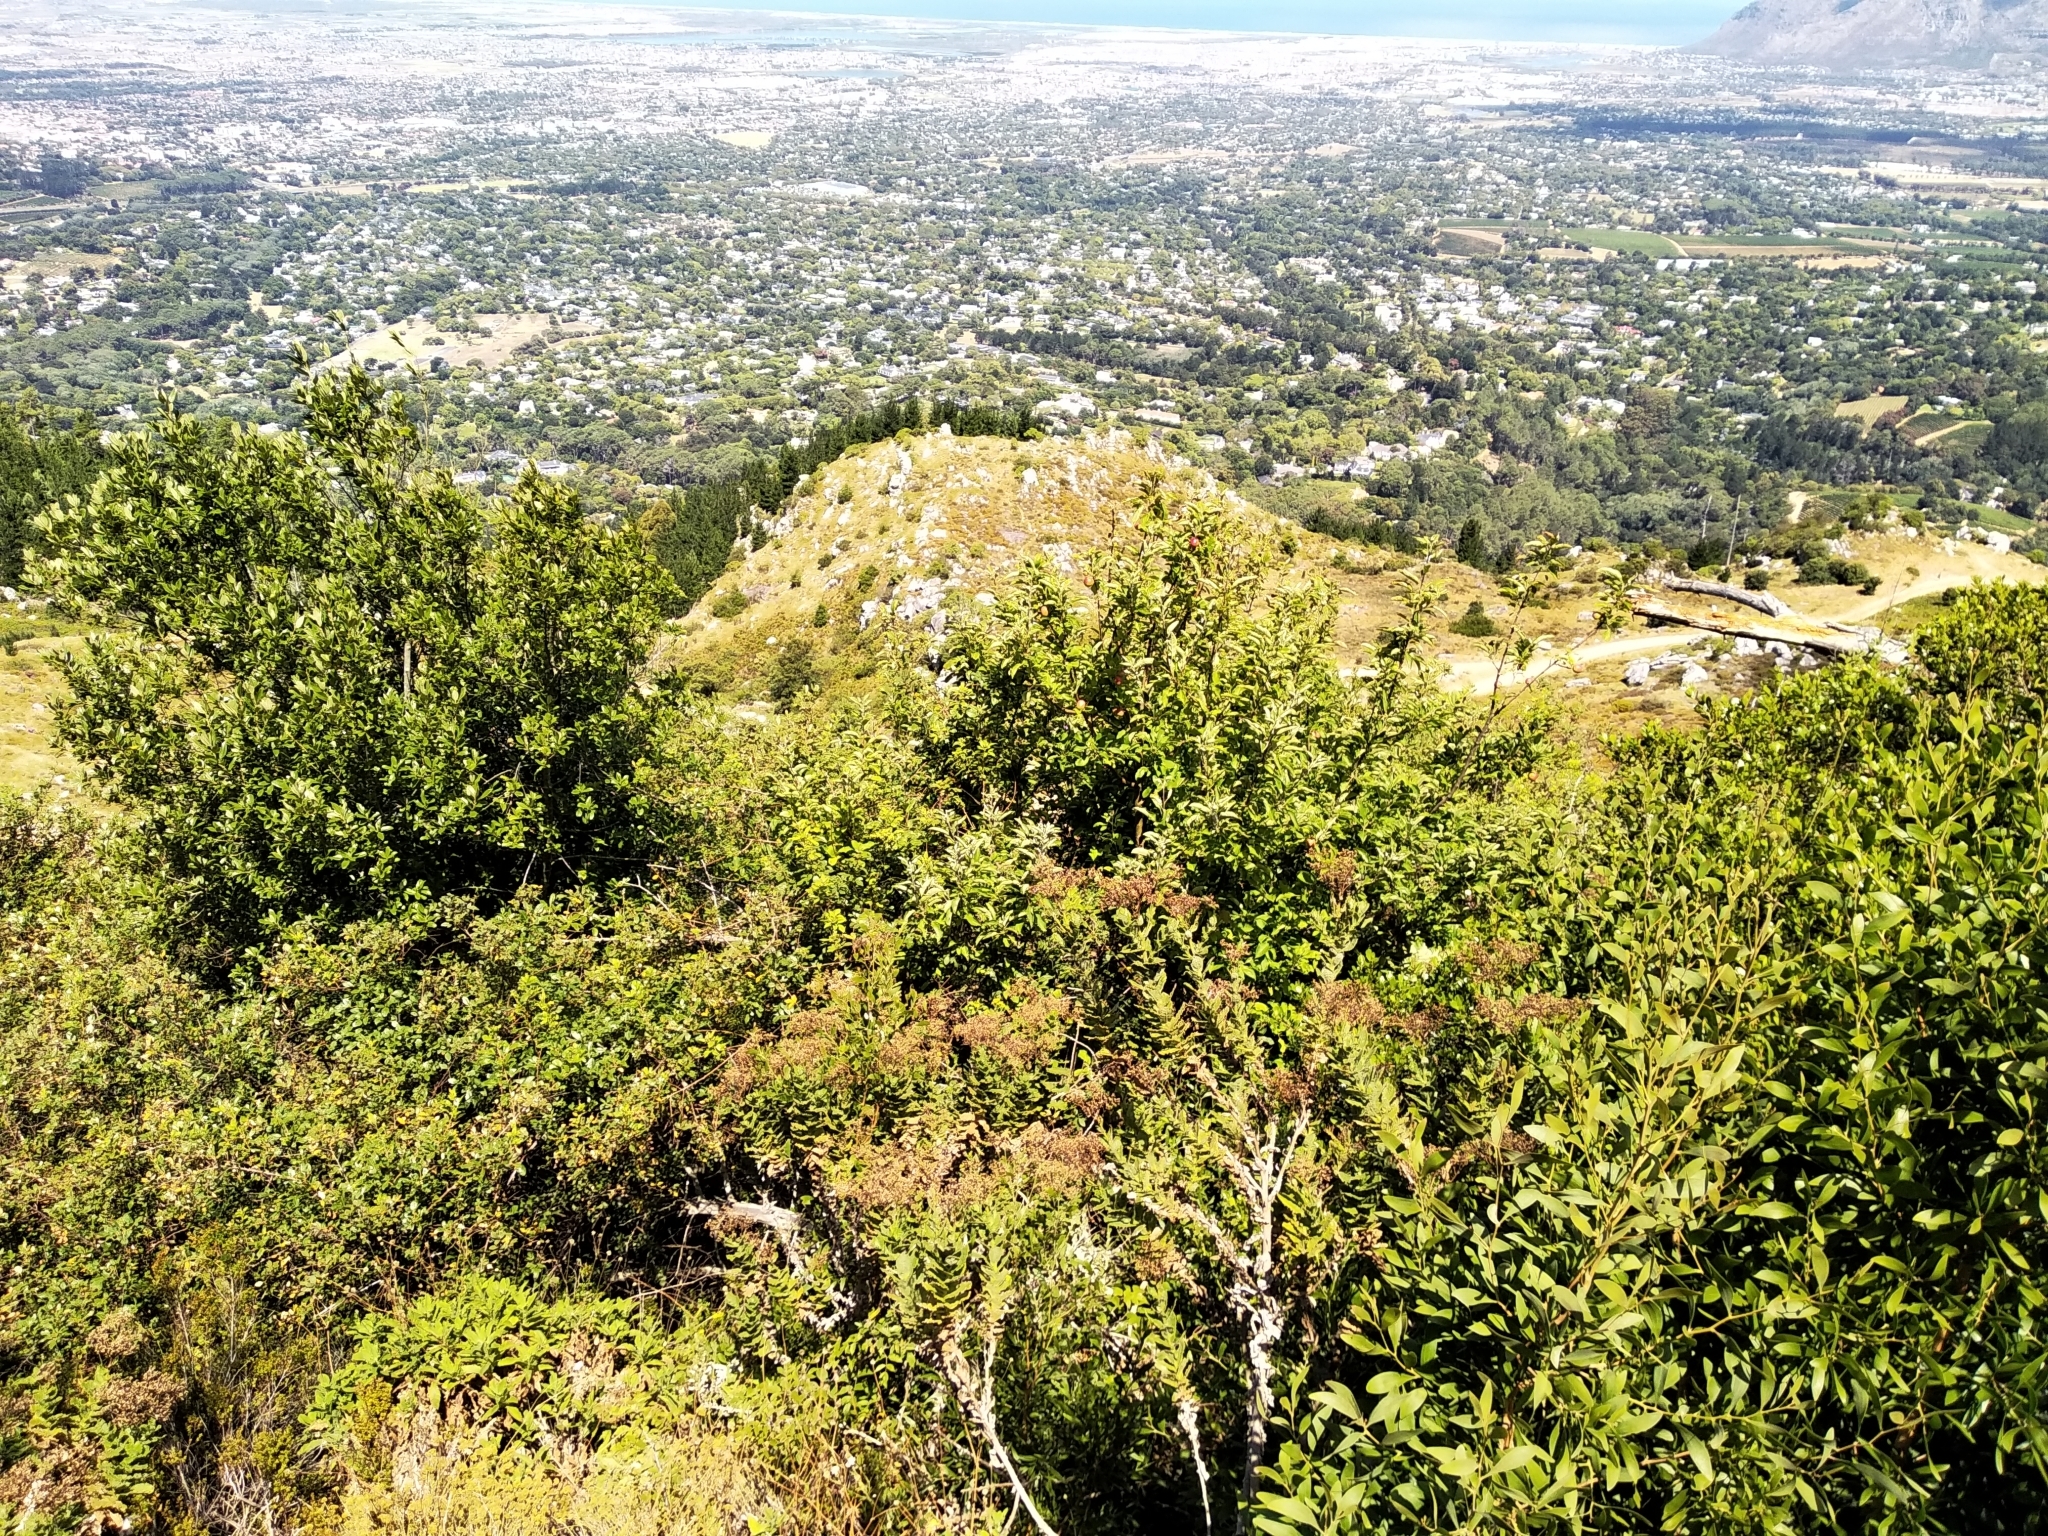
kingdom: Plantae
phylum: Tracheophyta
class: Magnoliopsida
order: Rosales
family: Rosaceae
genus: Malus
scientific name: Malus domestica
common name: Apple
